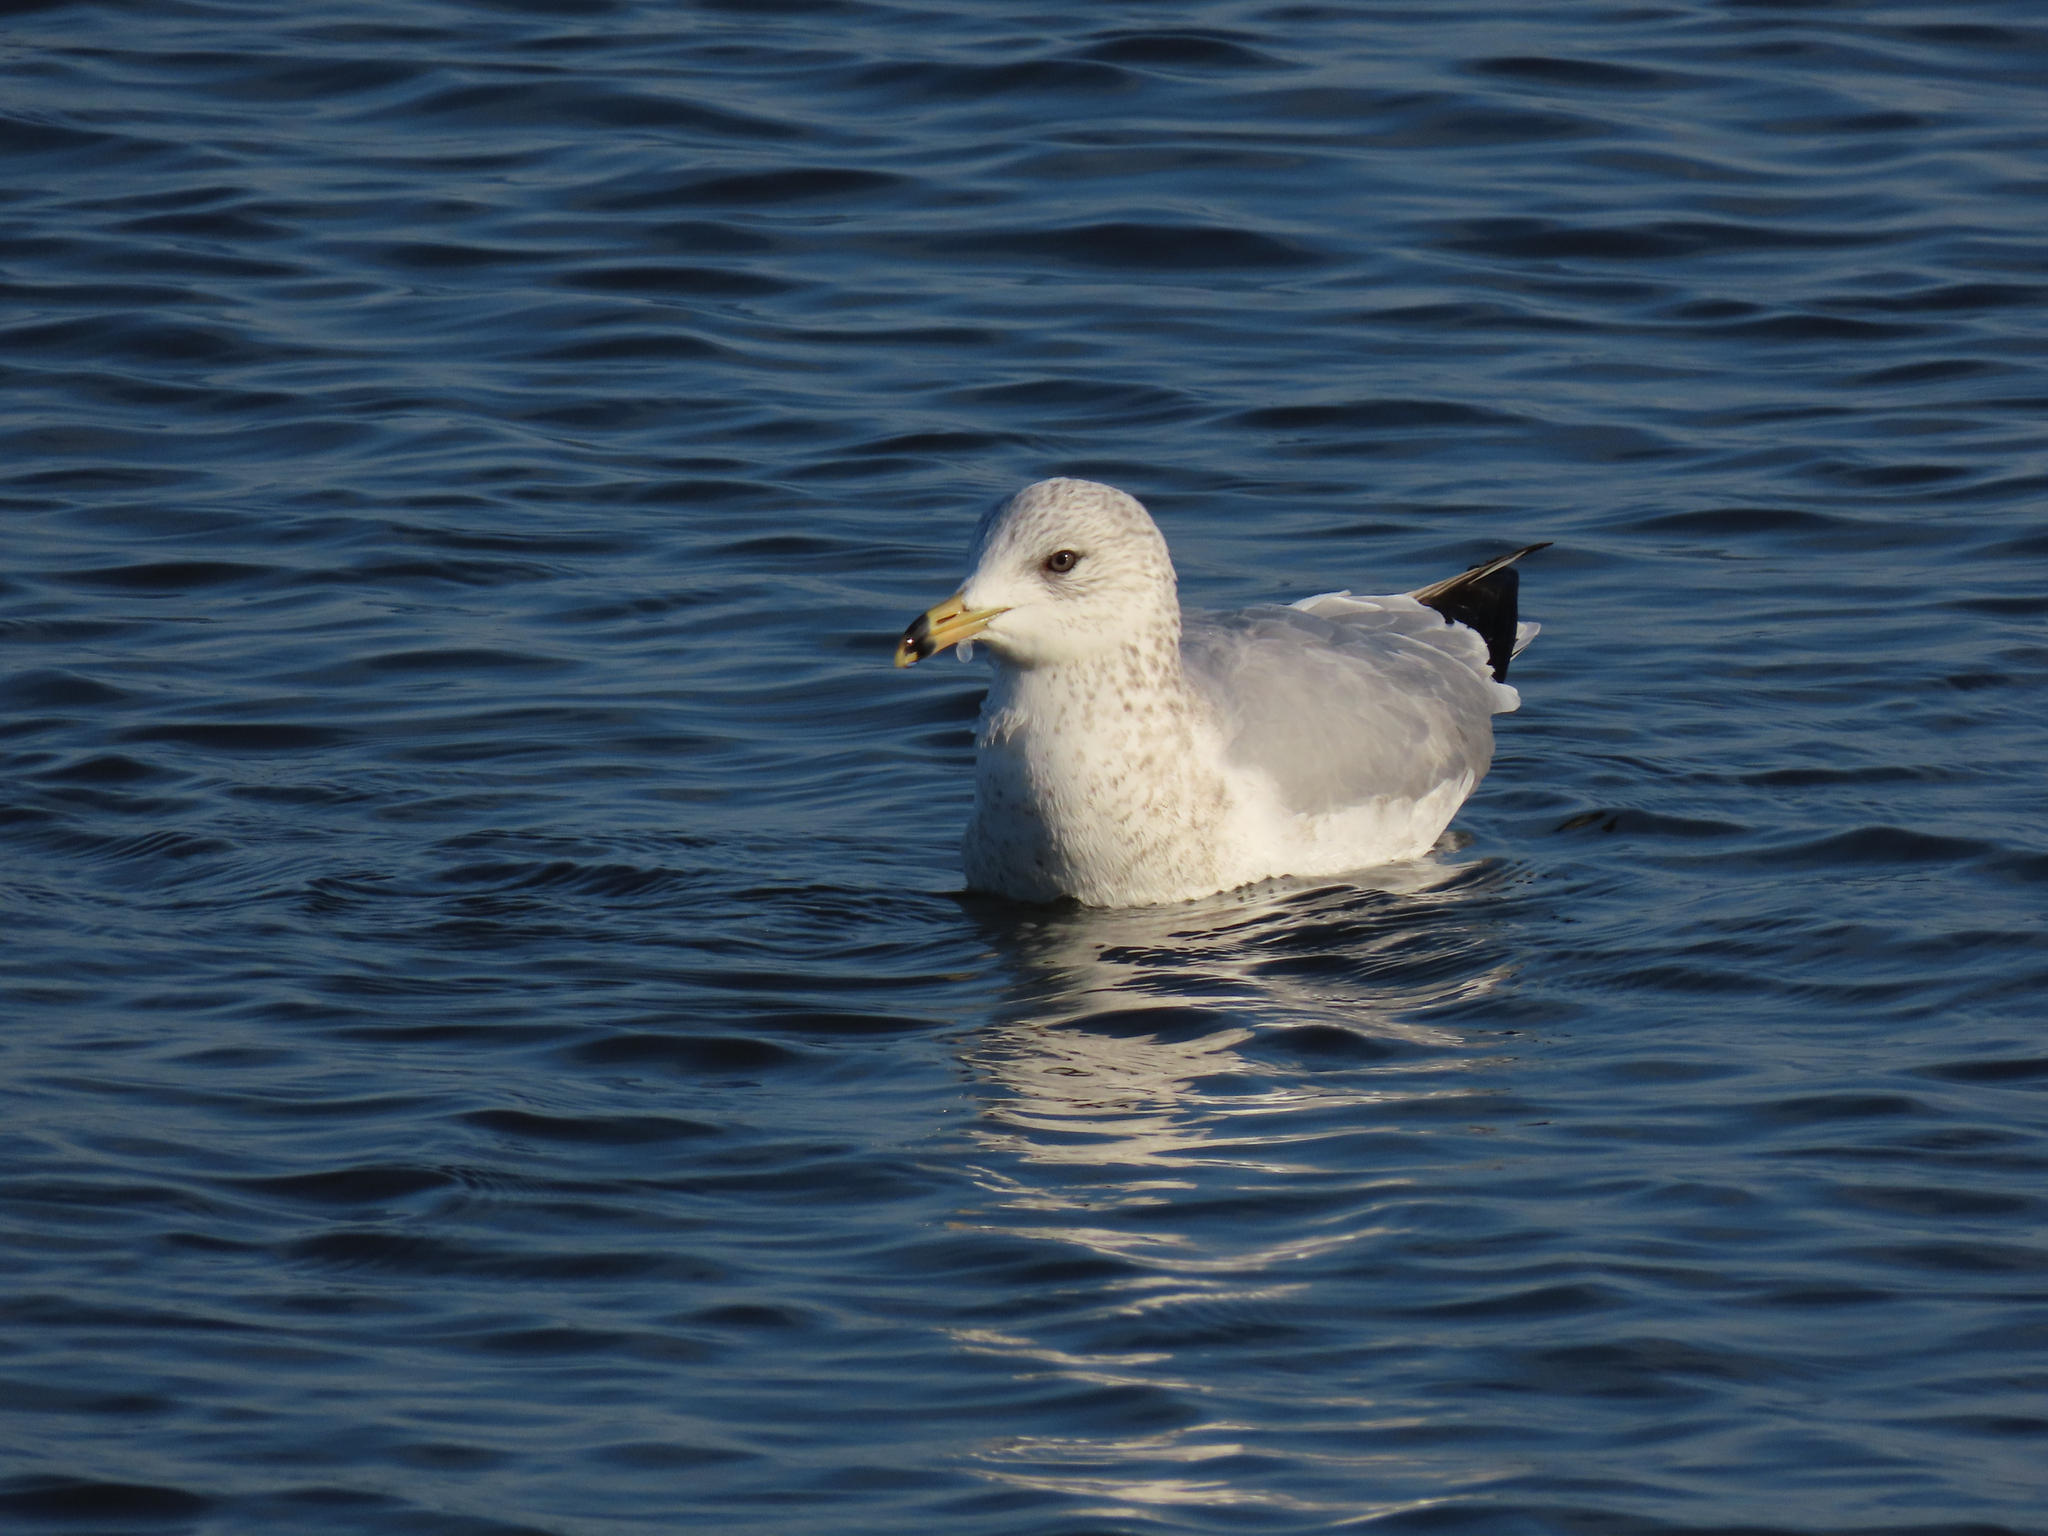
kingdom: Animalia
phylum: Chordata
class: Aves
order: Charadriiformes
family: Laridae
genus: Larus
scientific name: Larus delawarensis
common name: Ring-billed gull
